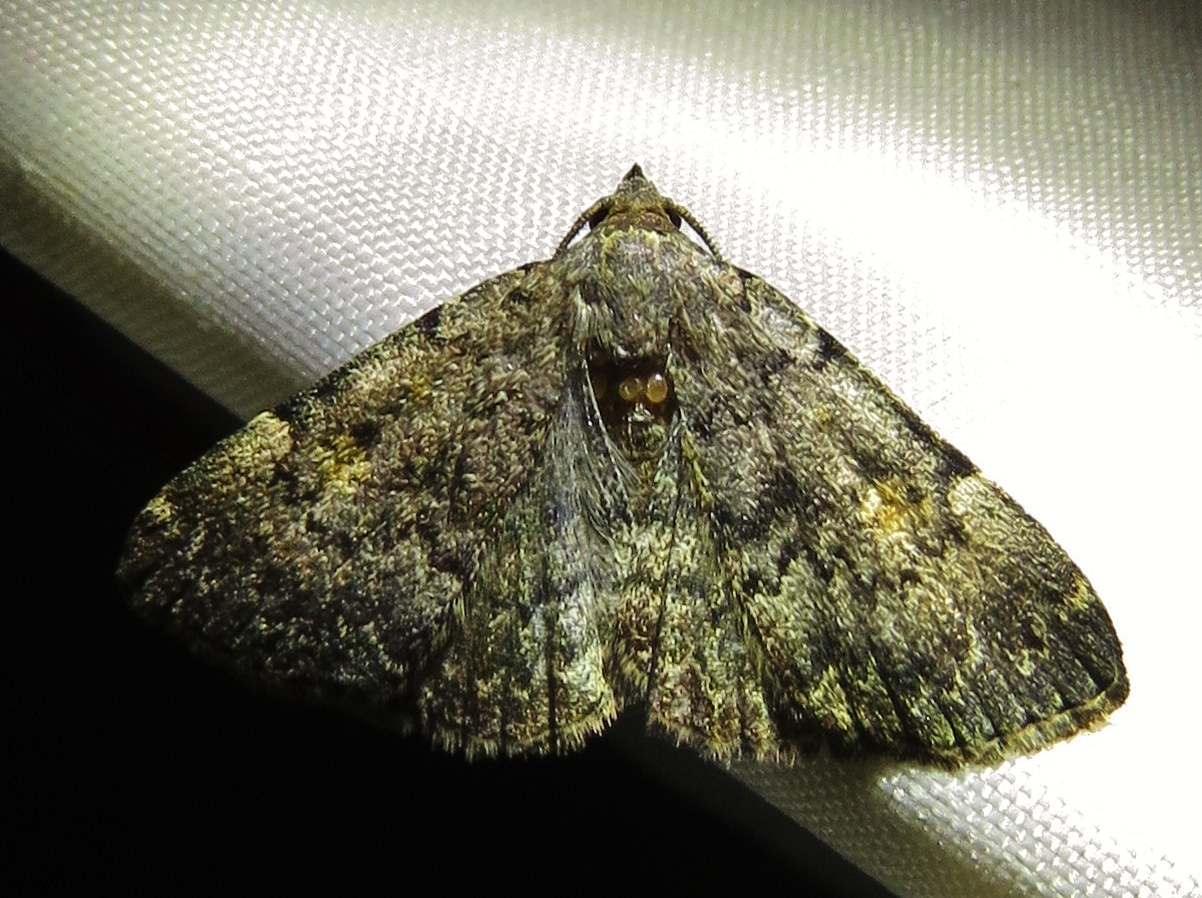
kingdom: Animalia
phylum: Arthropoda
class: Insecta
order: Lepidoptera
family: Erebidae
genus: Idia
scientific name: Idia aemula
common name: Common idia moth
